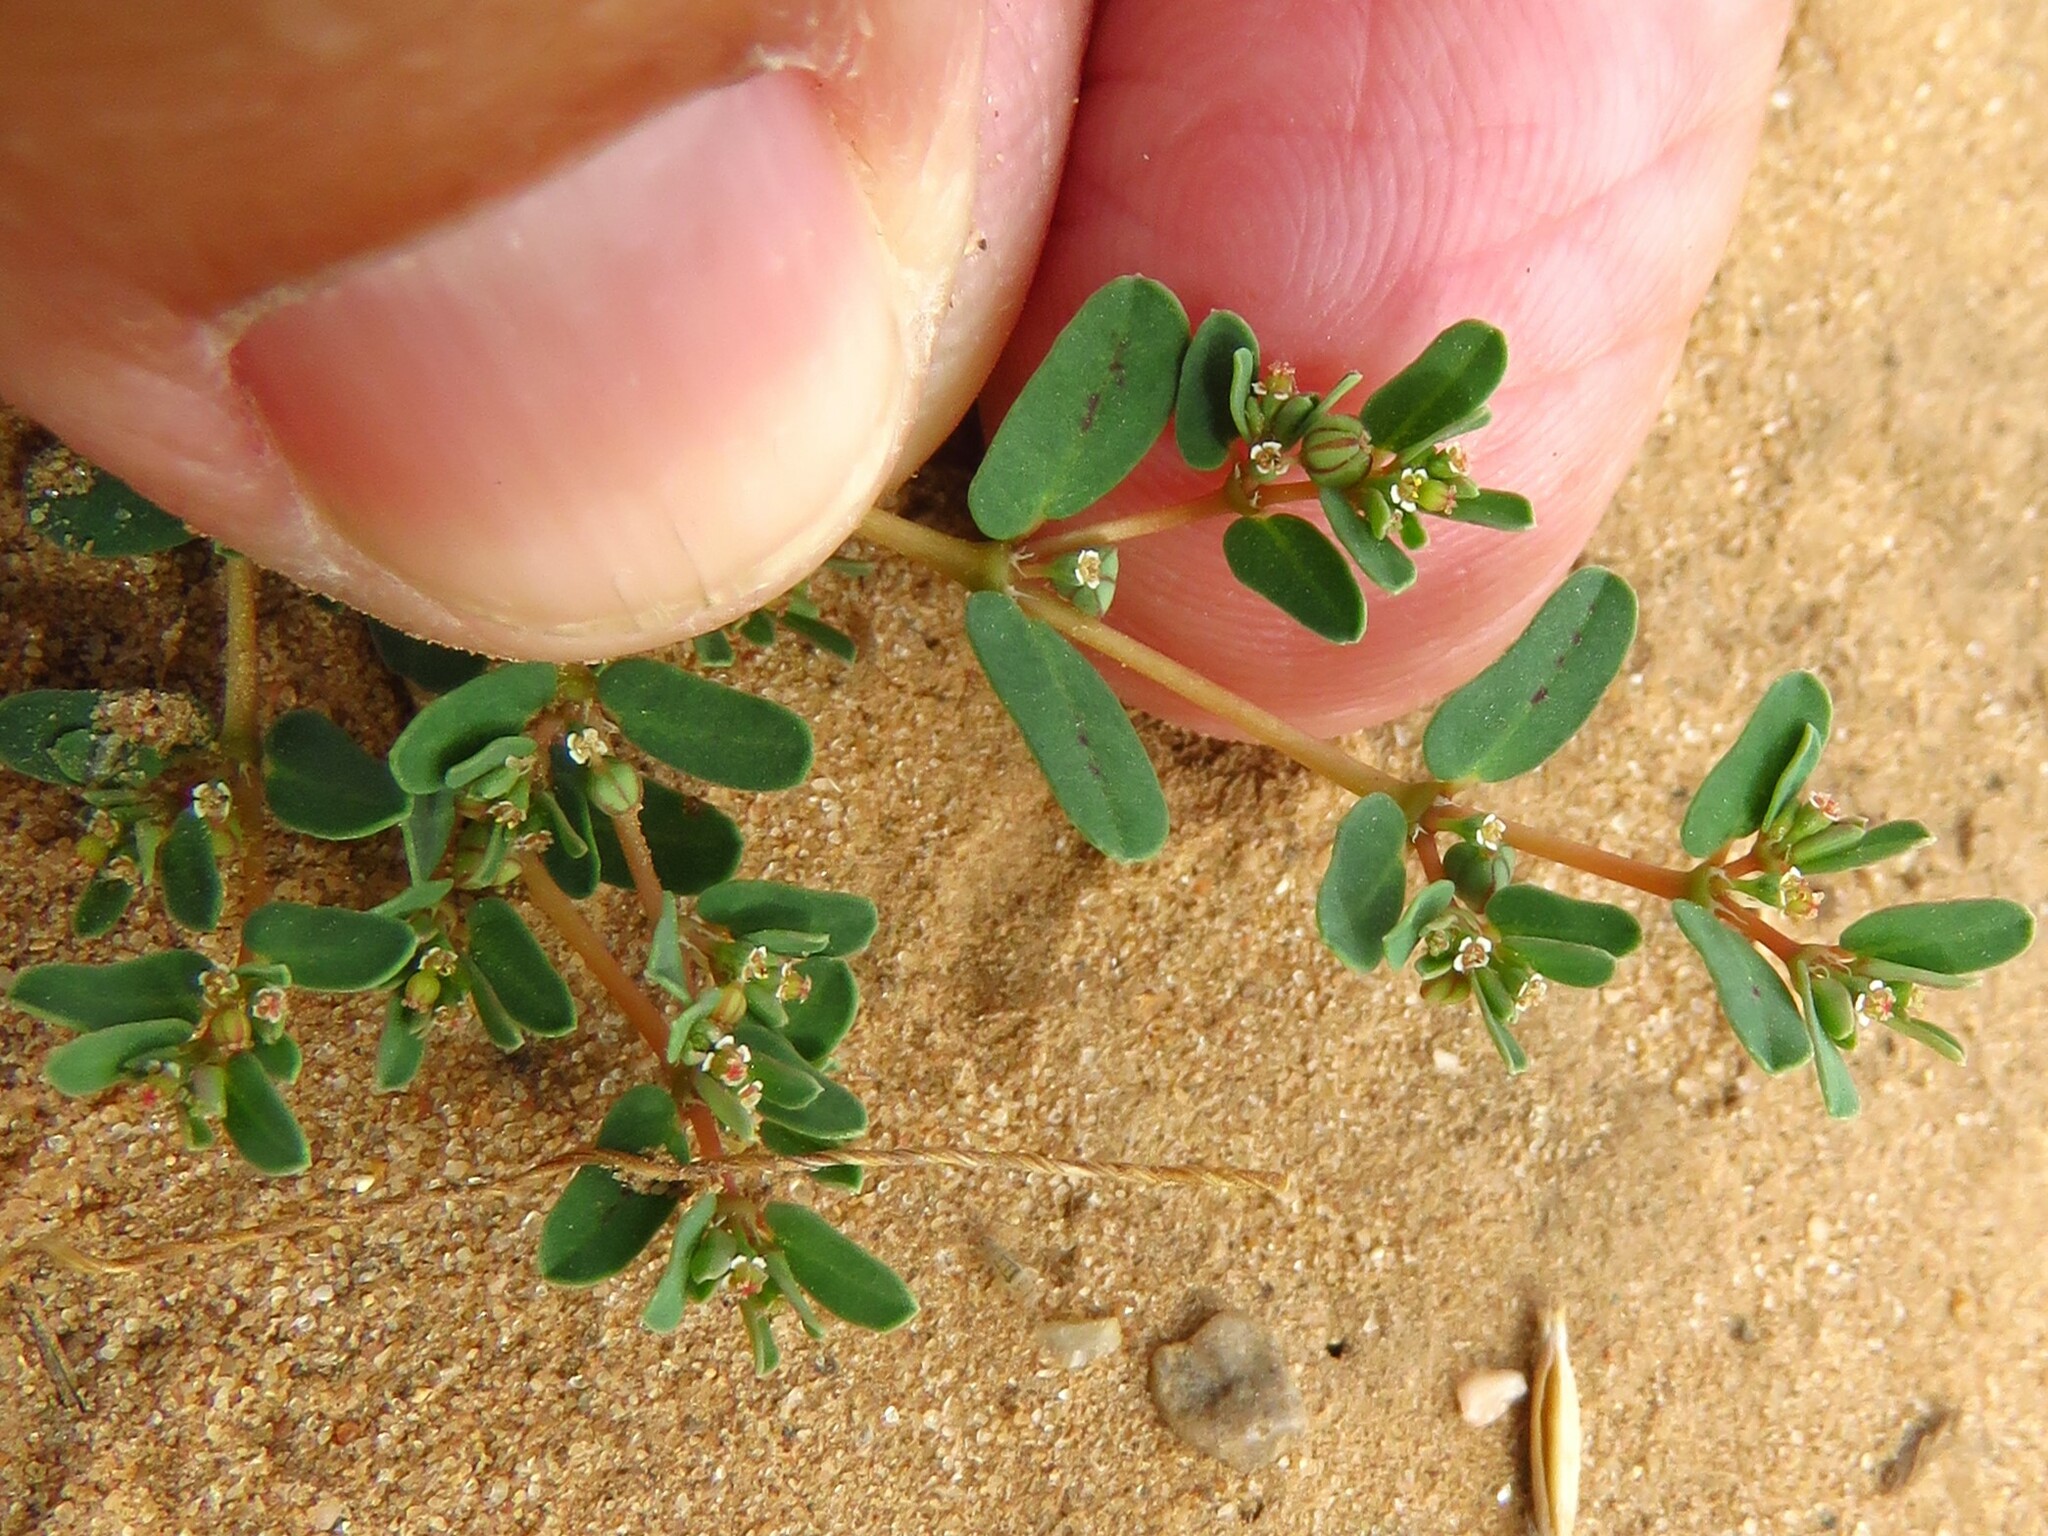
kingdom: Plantae
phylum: Tracheophyta
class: Magnoliopsida
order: Malpighiales
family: Euphorbiaceae
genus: Euphorbia
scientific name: Euphorbia maculata
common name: Spotted spurge
